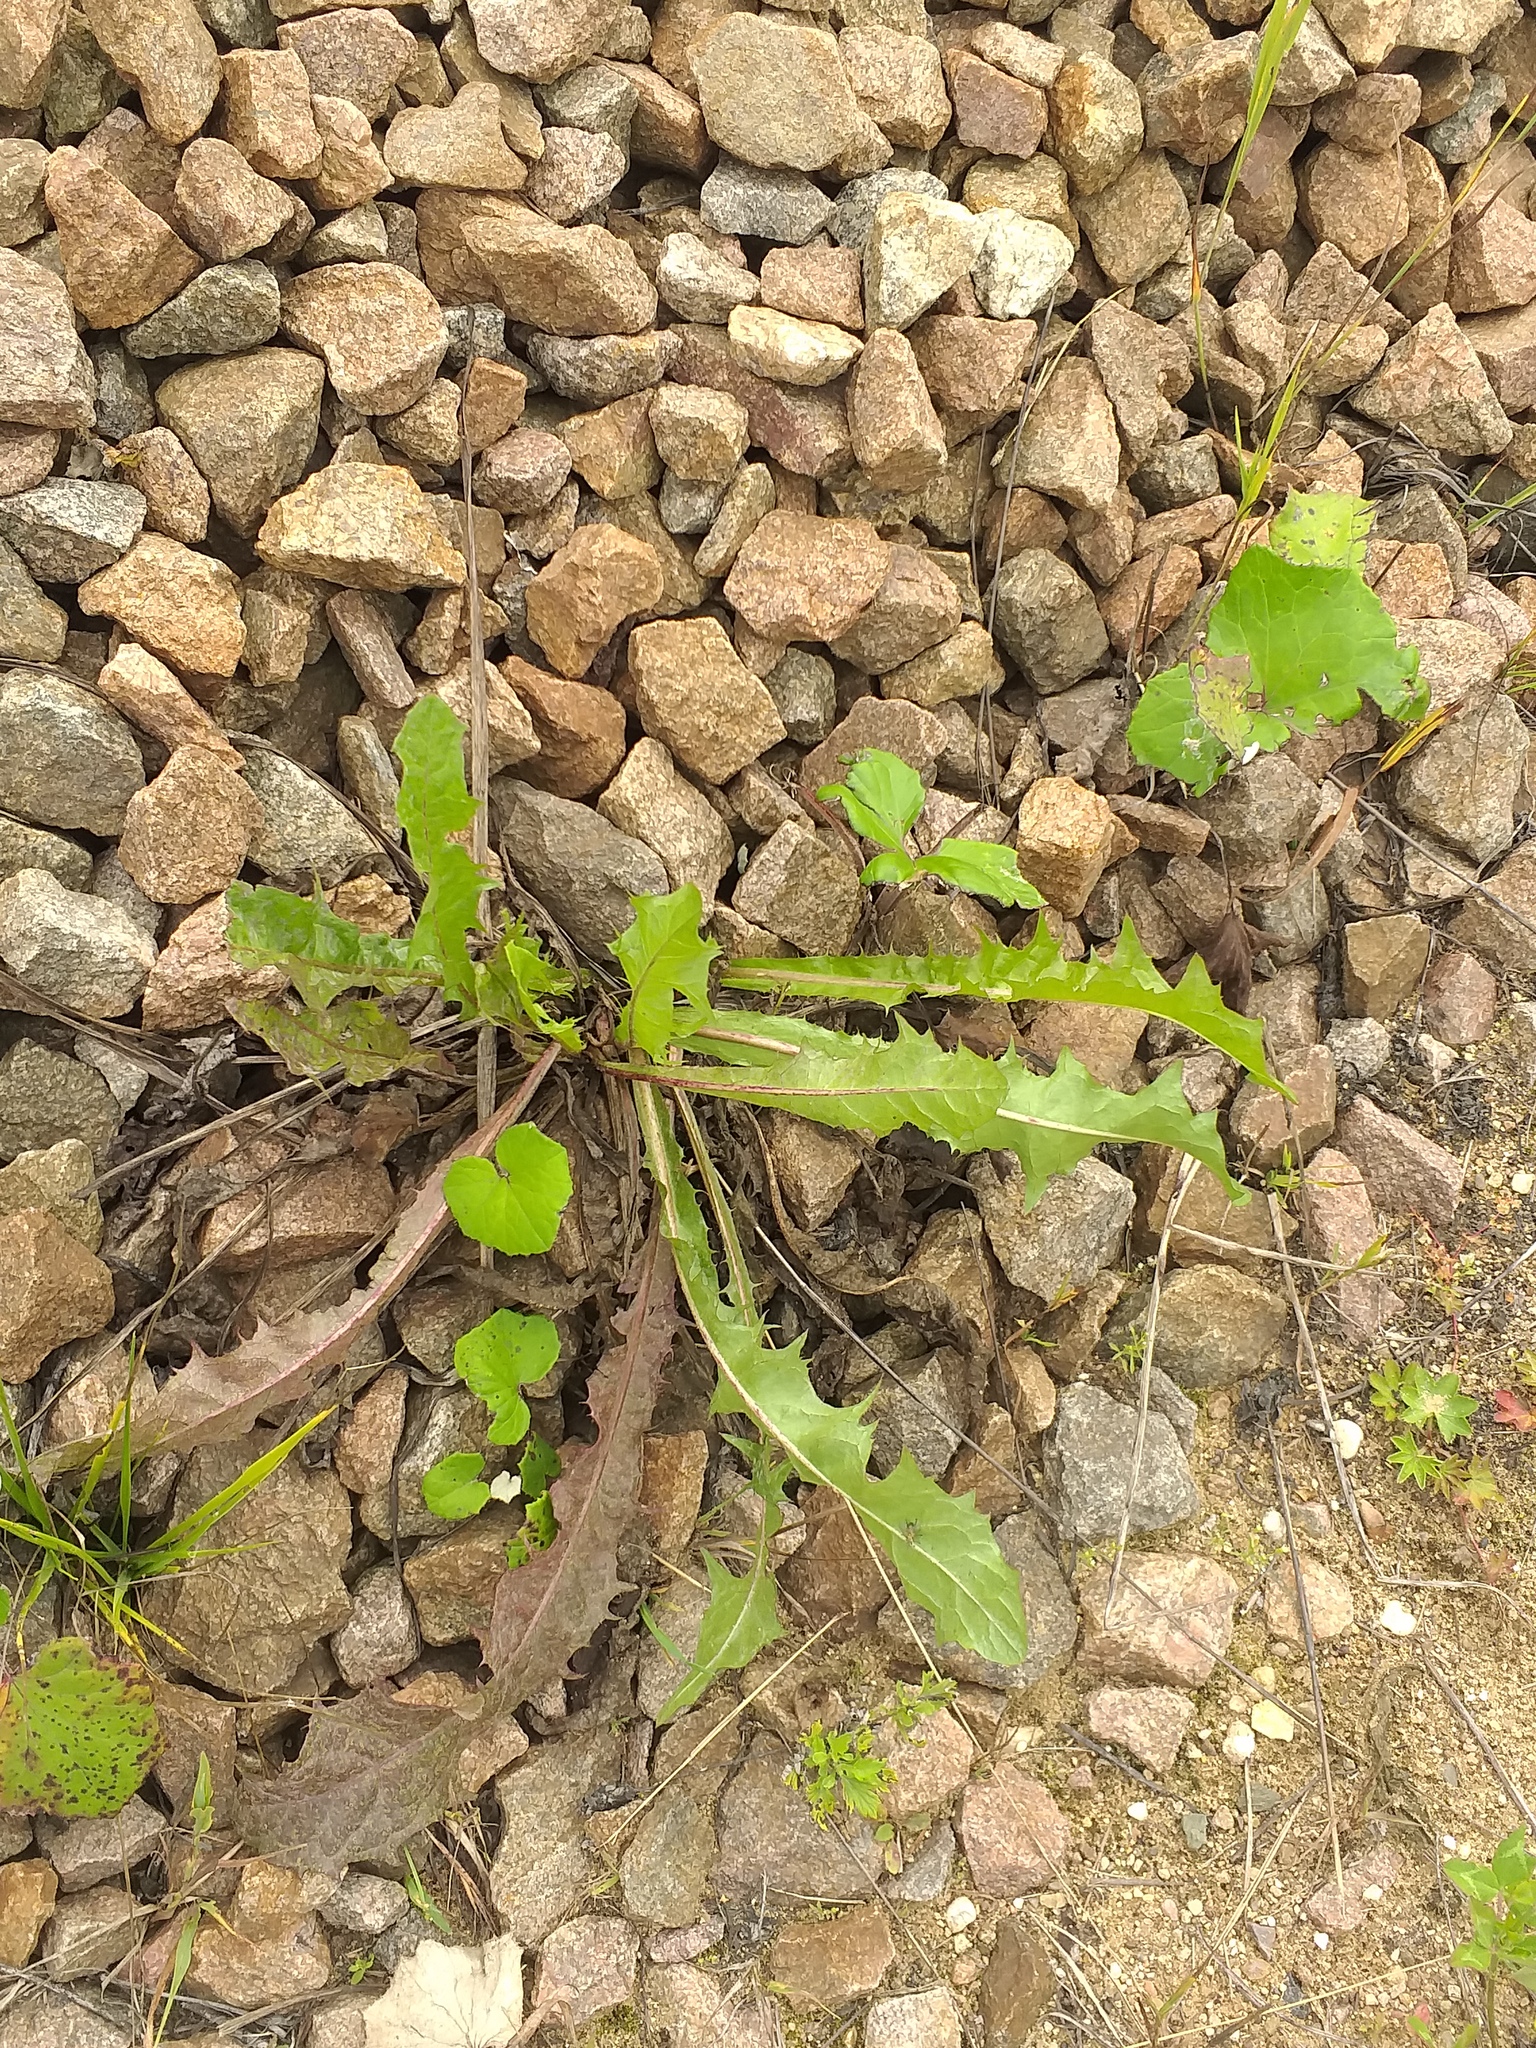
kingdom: Plantae
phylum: Tracheophyta
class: Magnoliopsida
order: Asterales
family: Asteraceae
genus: Taraxacum
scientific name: Taraxacum officinale
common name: Common dandelion
